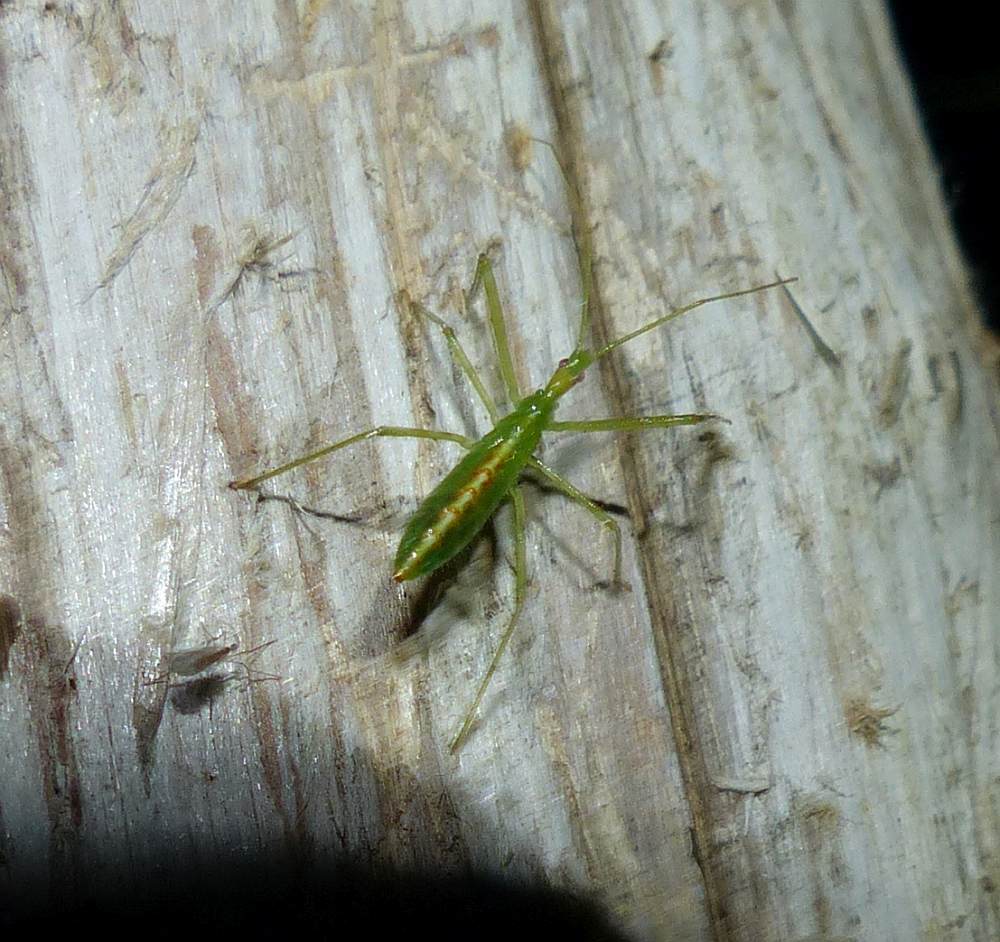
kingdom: Animalia
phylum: Arthropoda
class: Insecta
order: Hemiptera
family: Reduviidae
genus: Zelus
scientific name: Zelus luridus
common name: Pale green assassin bug
